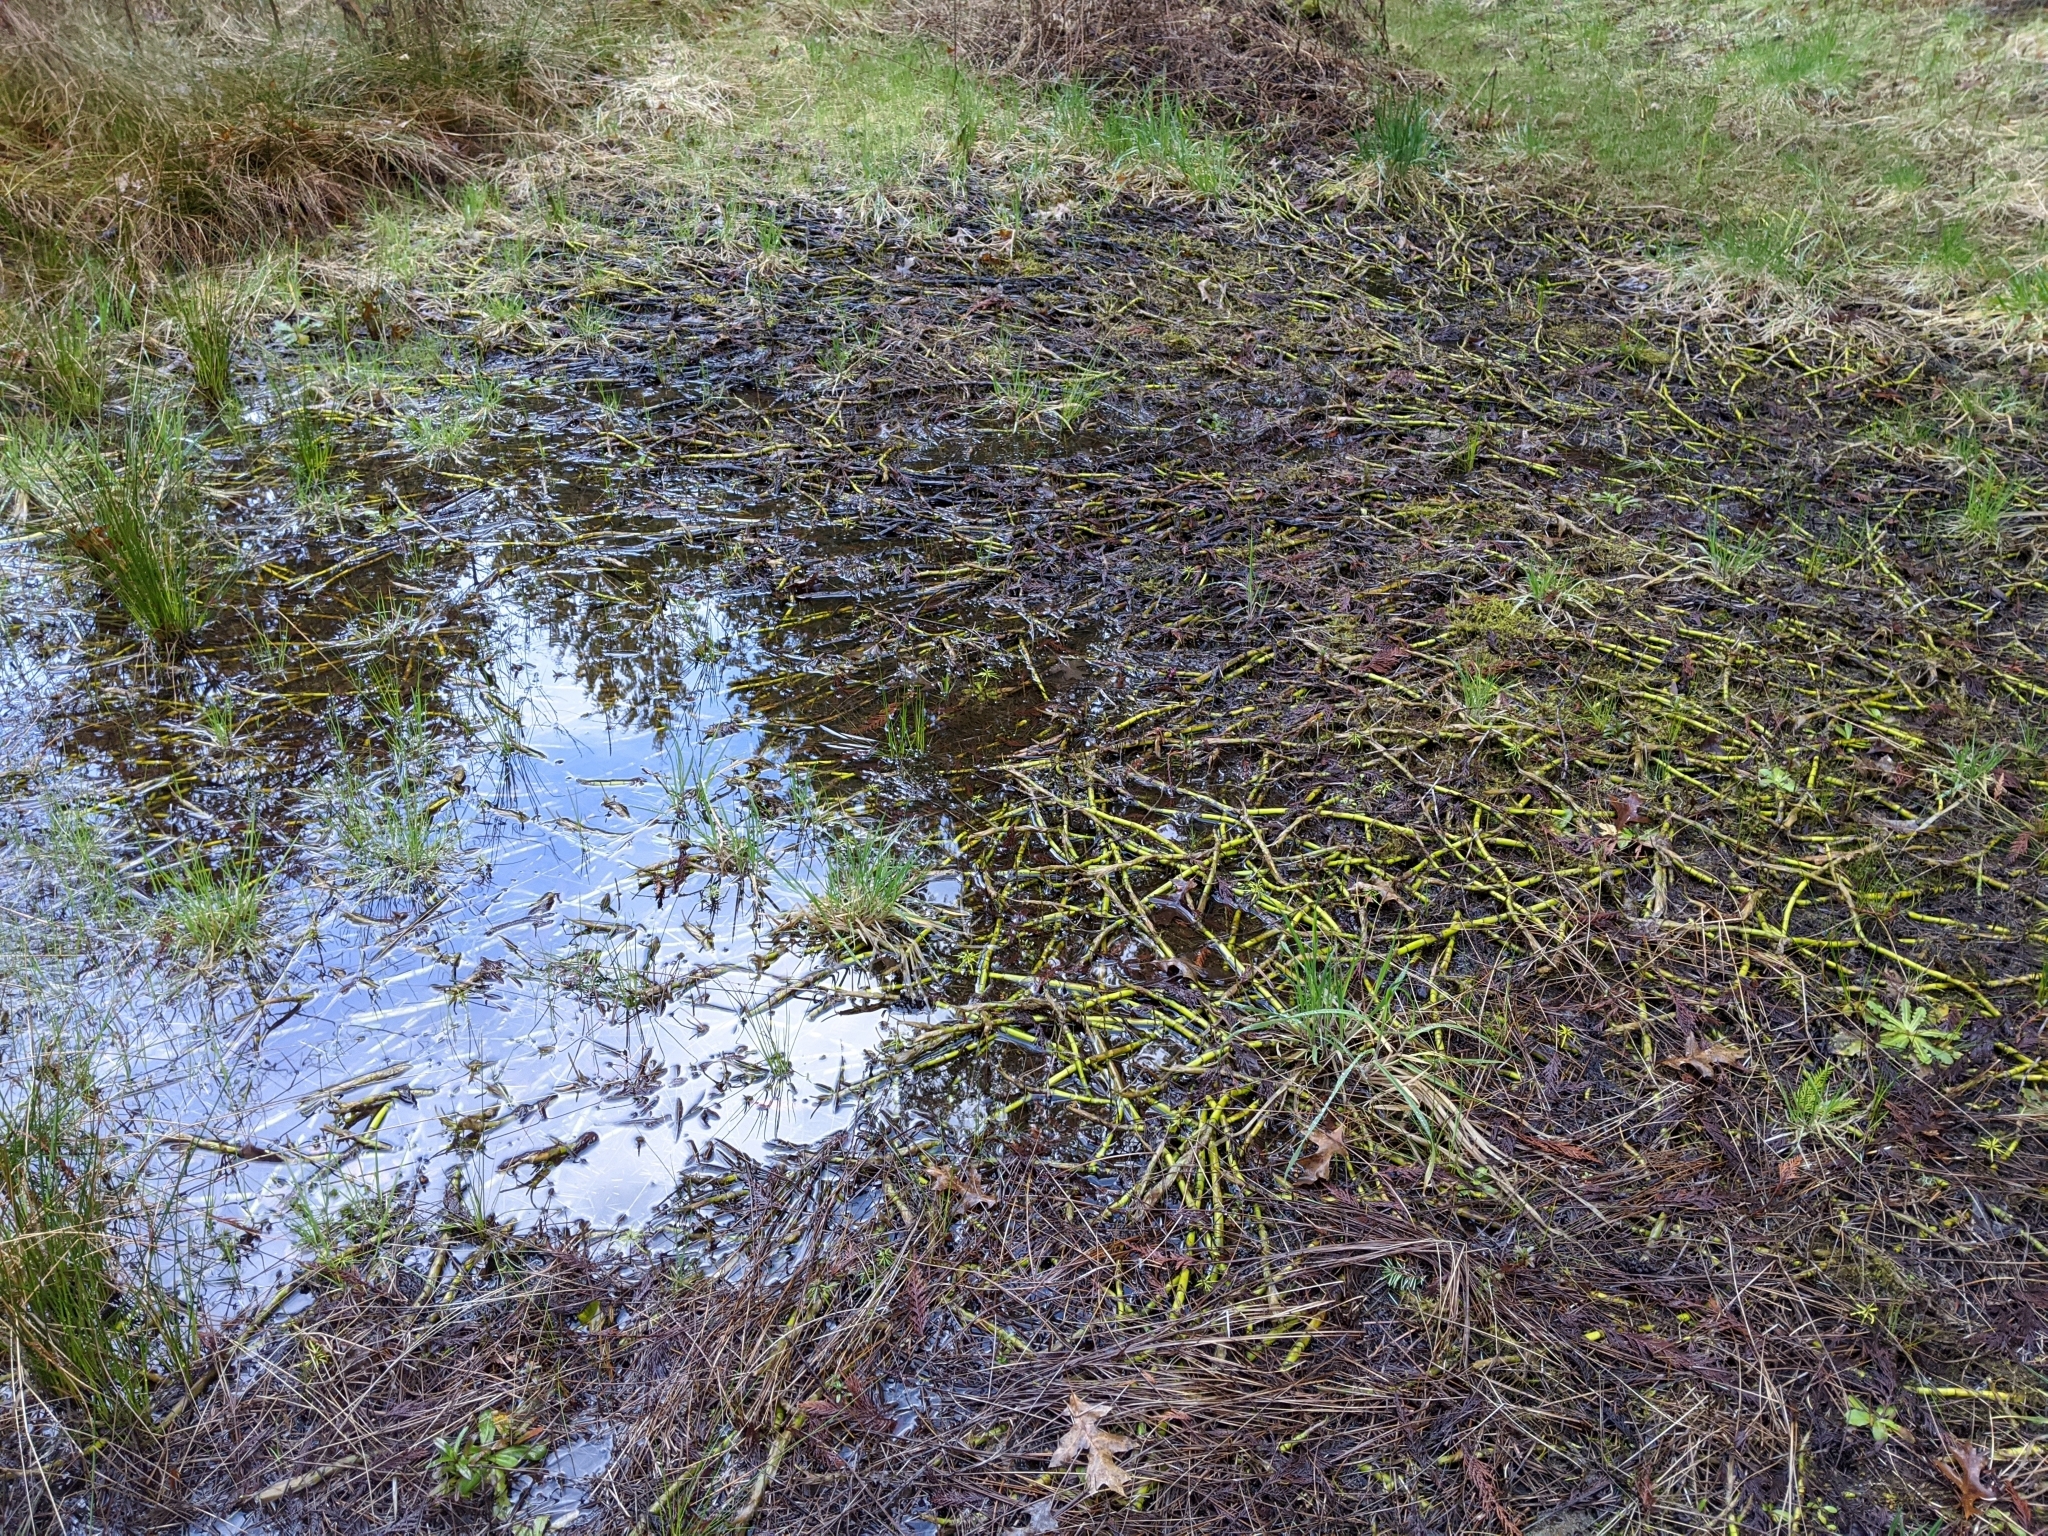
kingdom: Plantae
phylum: Tracheophyta
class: Magnoliopsida
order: Asterales
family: Menyanthaceae
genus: Menyanthes
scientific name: Menyanthes trifoliata
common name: Bogbean
